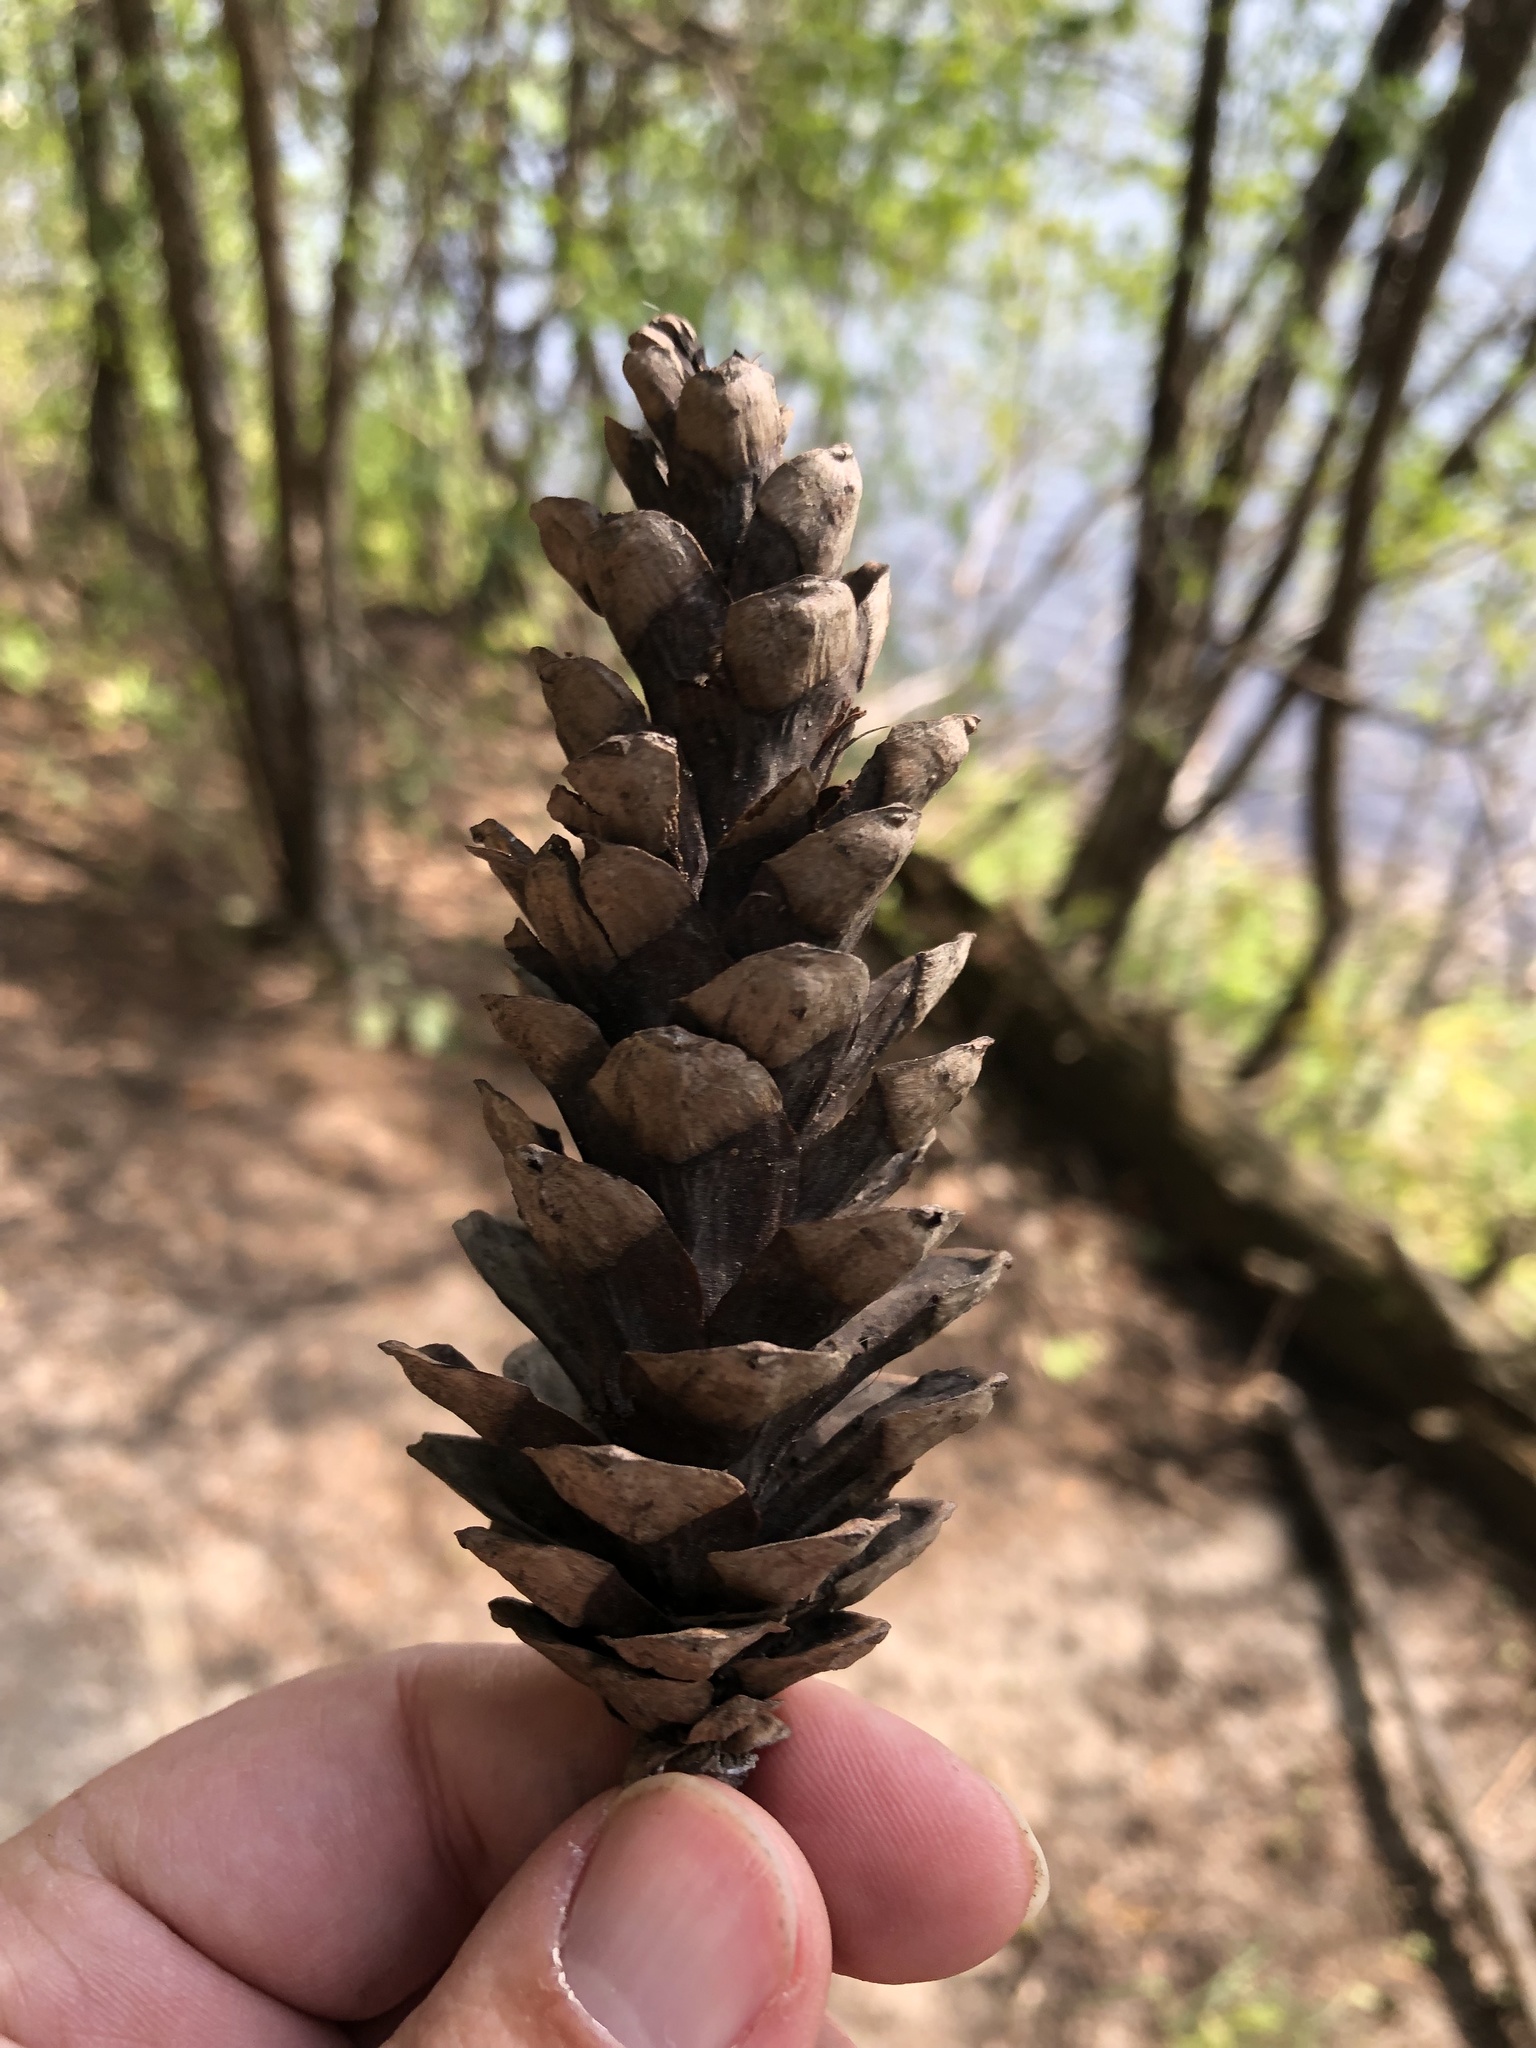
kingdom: Plantae
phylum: Tracheophyta
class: Pinopsida
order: Pinales
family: Pinaceae
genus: Pinus
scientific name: Pinus strobus
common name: Weymouth pine
